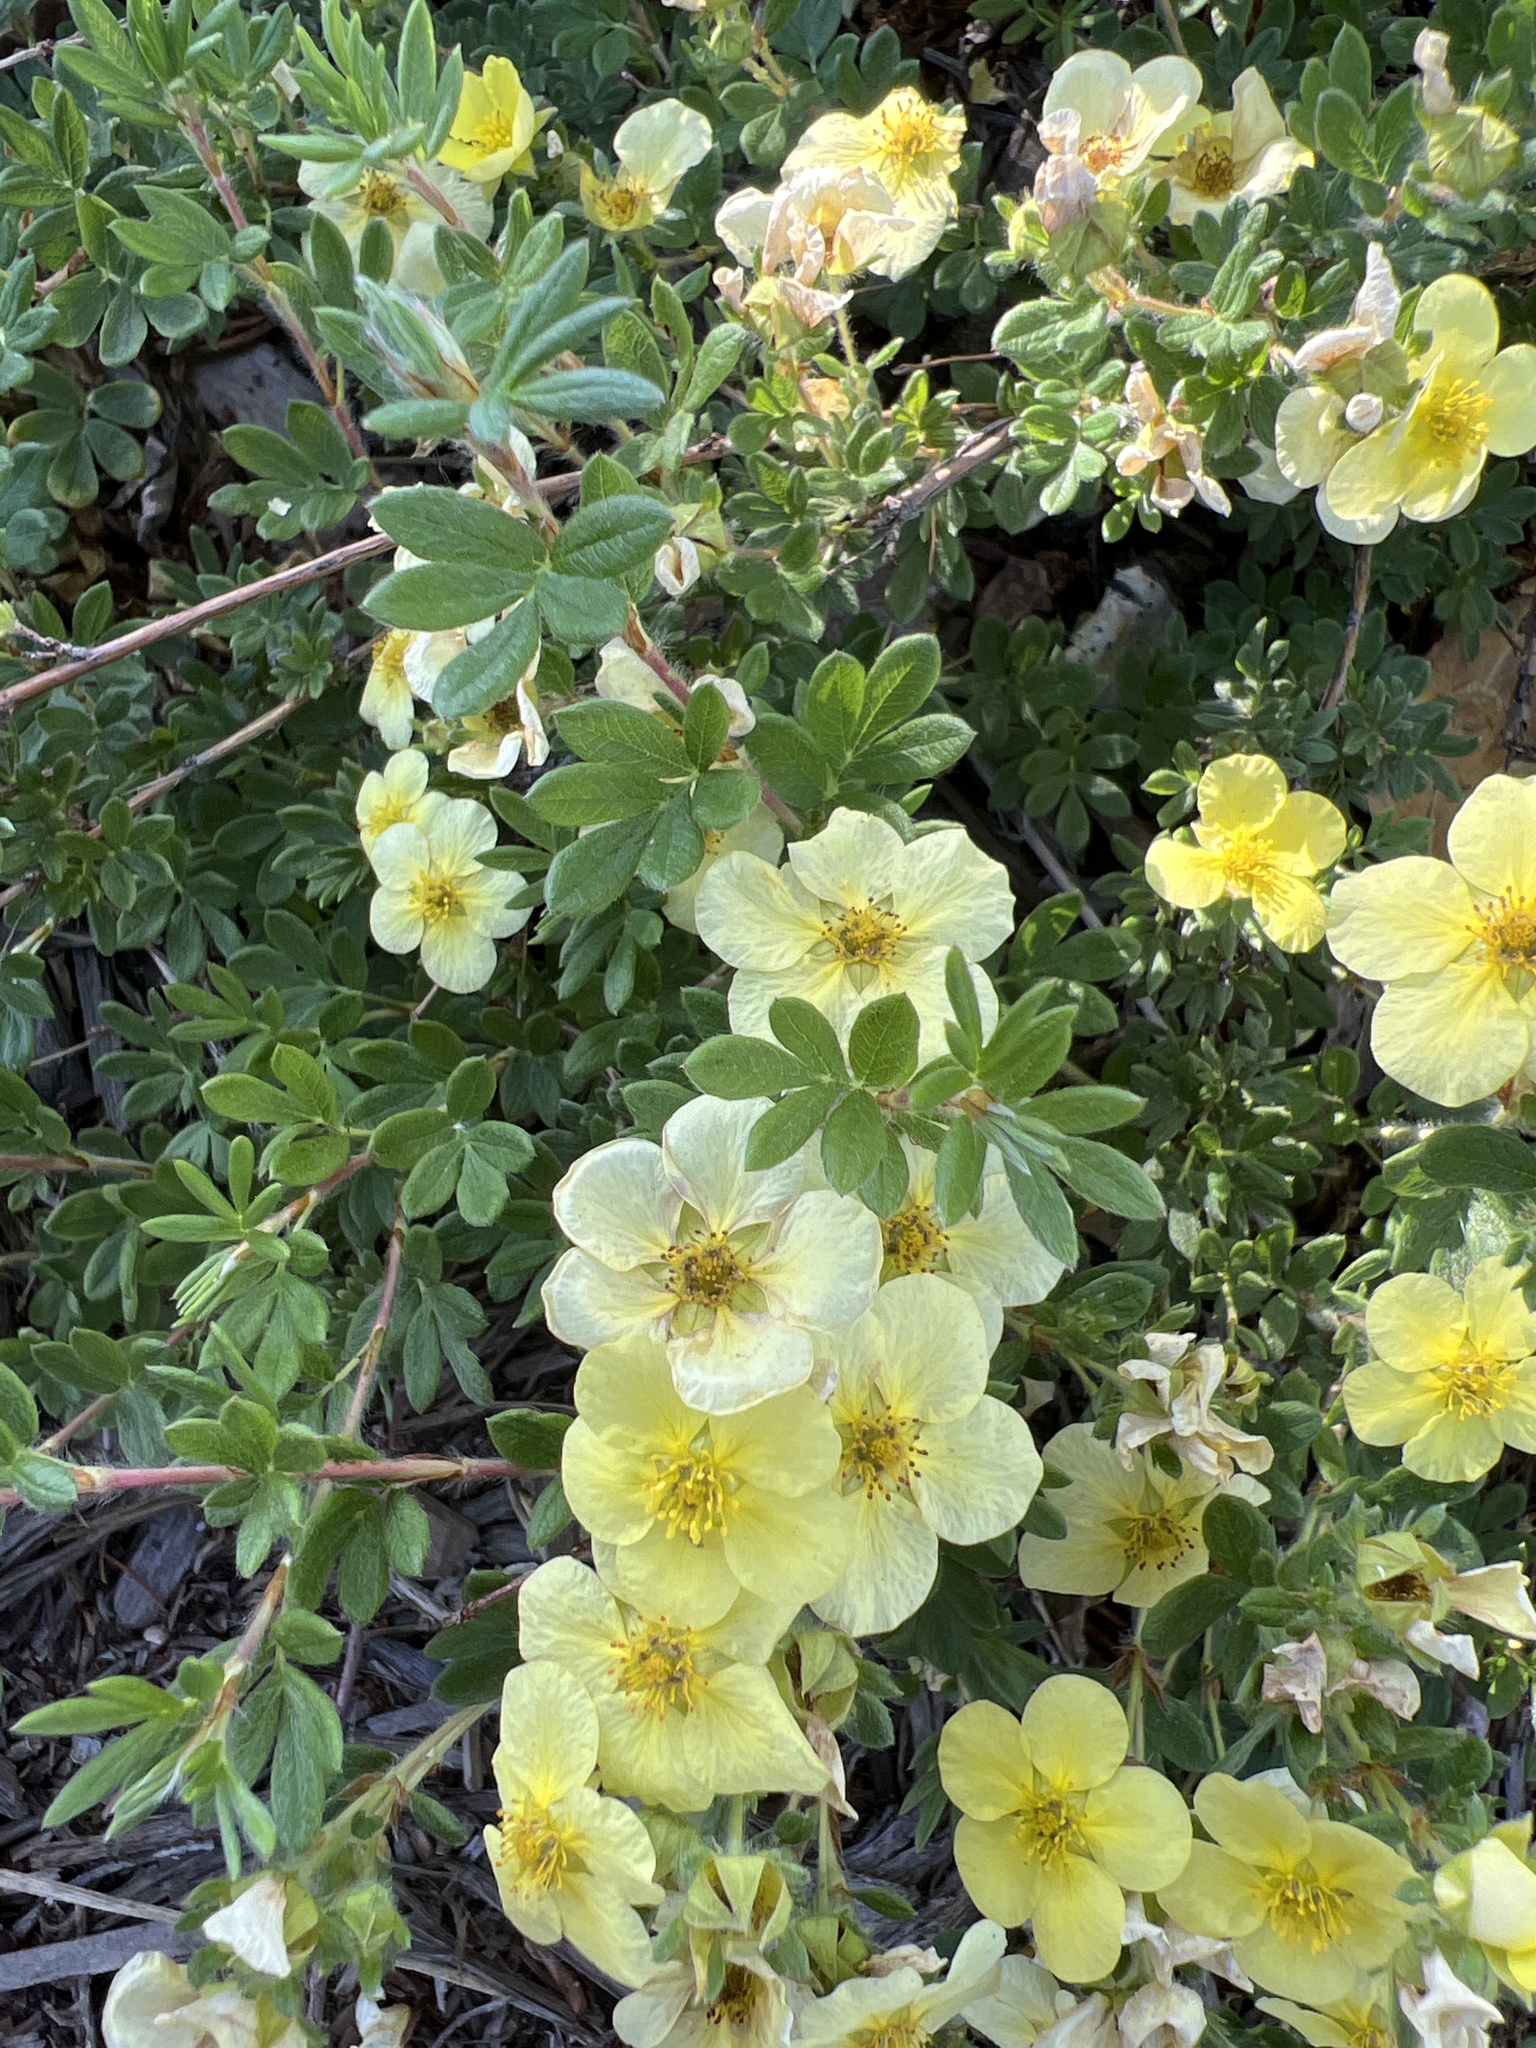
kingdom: Plantae
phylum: Tracheophyta
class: Magnoliopsida
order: Rosales
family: Rosaceae
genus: Dasiphora
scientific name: Dasiphora fruticosa
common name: Shrubby cinquefoil
